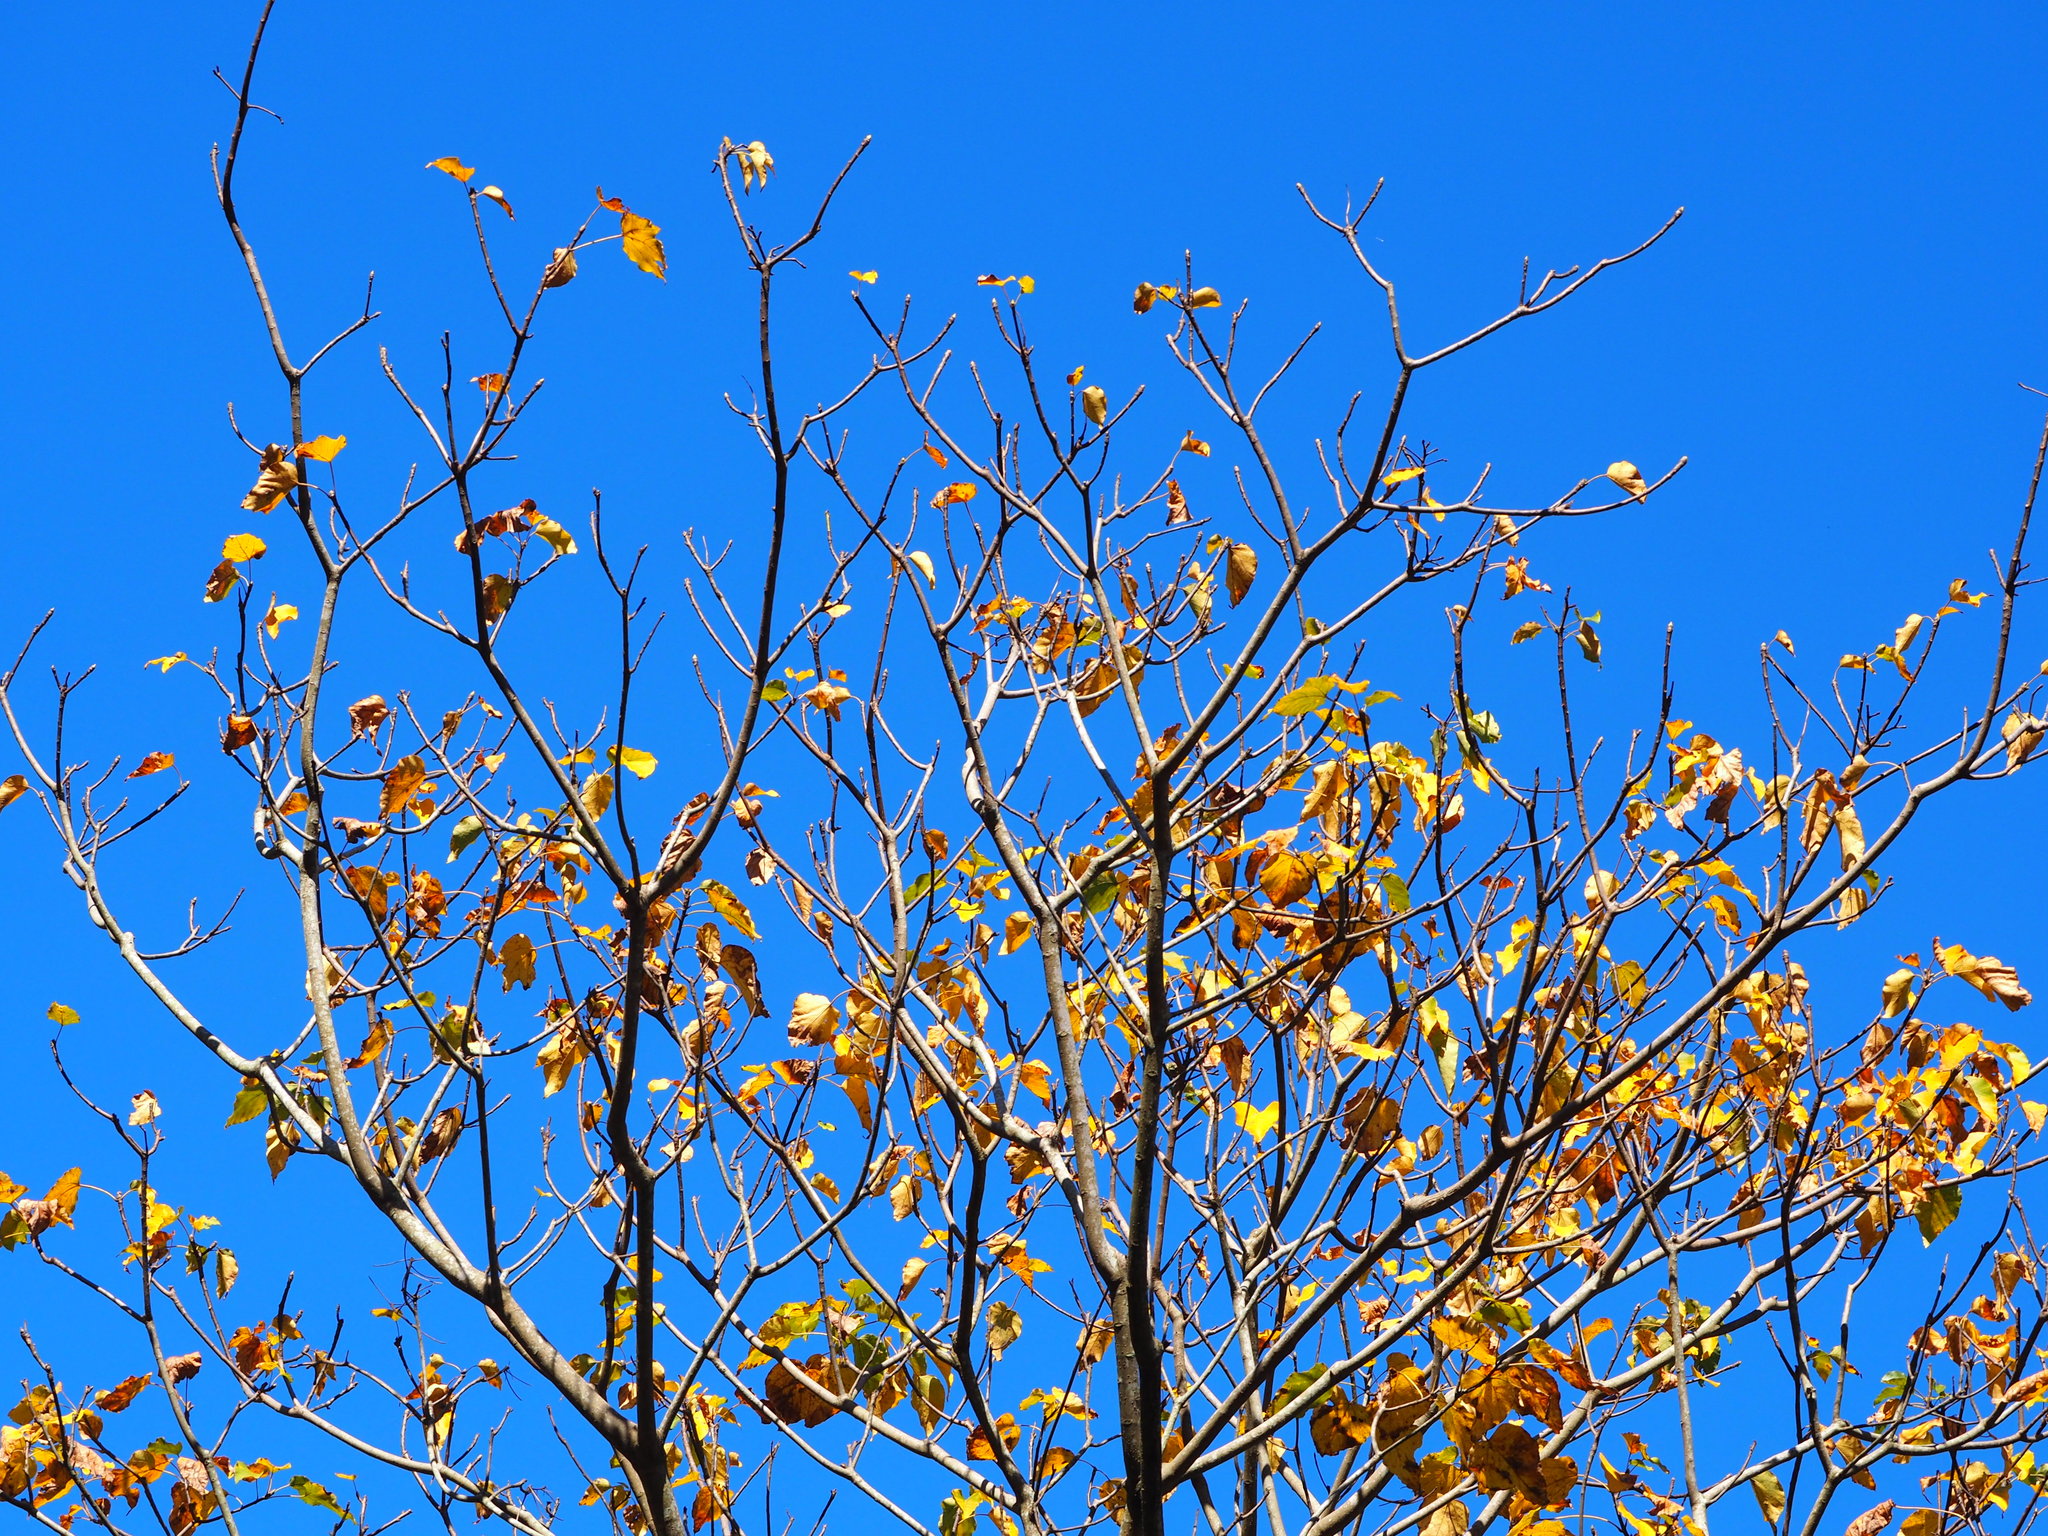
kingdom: Plantae
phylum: Tracheophyta
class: Magnoliopsida
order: Malpighiales
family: Euphorbiaceae
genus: Vernicia
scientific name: Vernicia montana
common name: Mu oil tree
